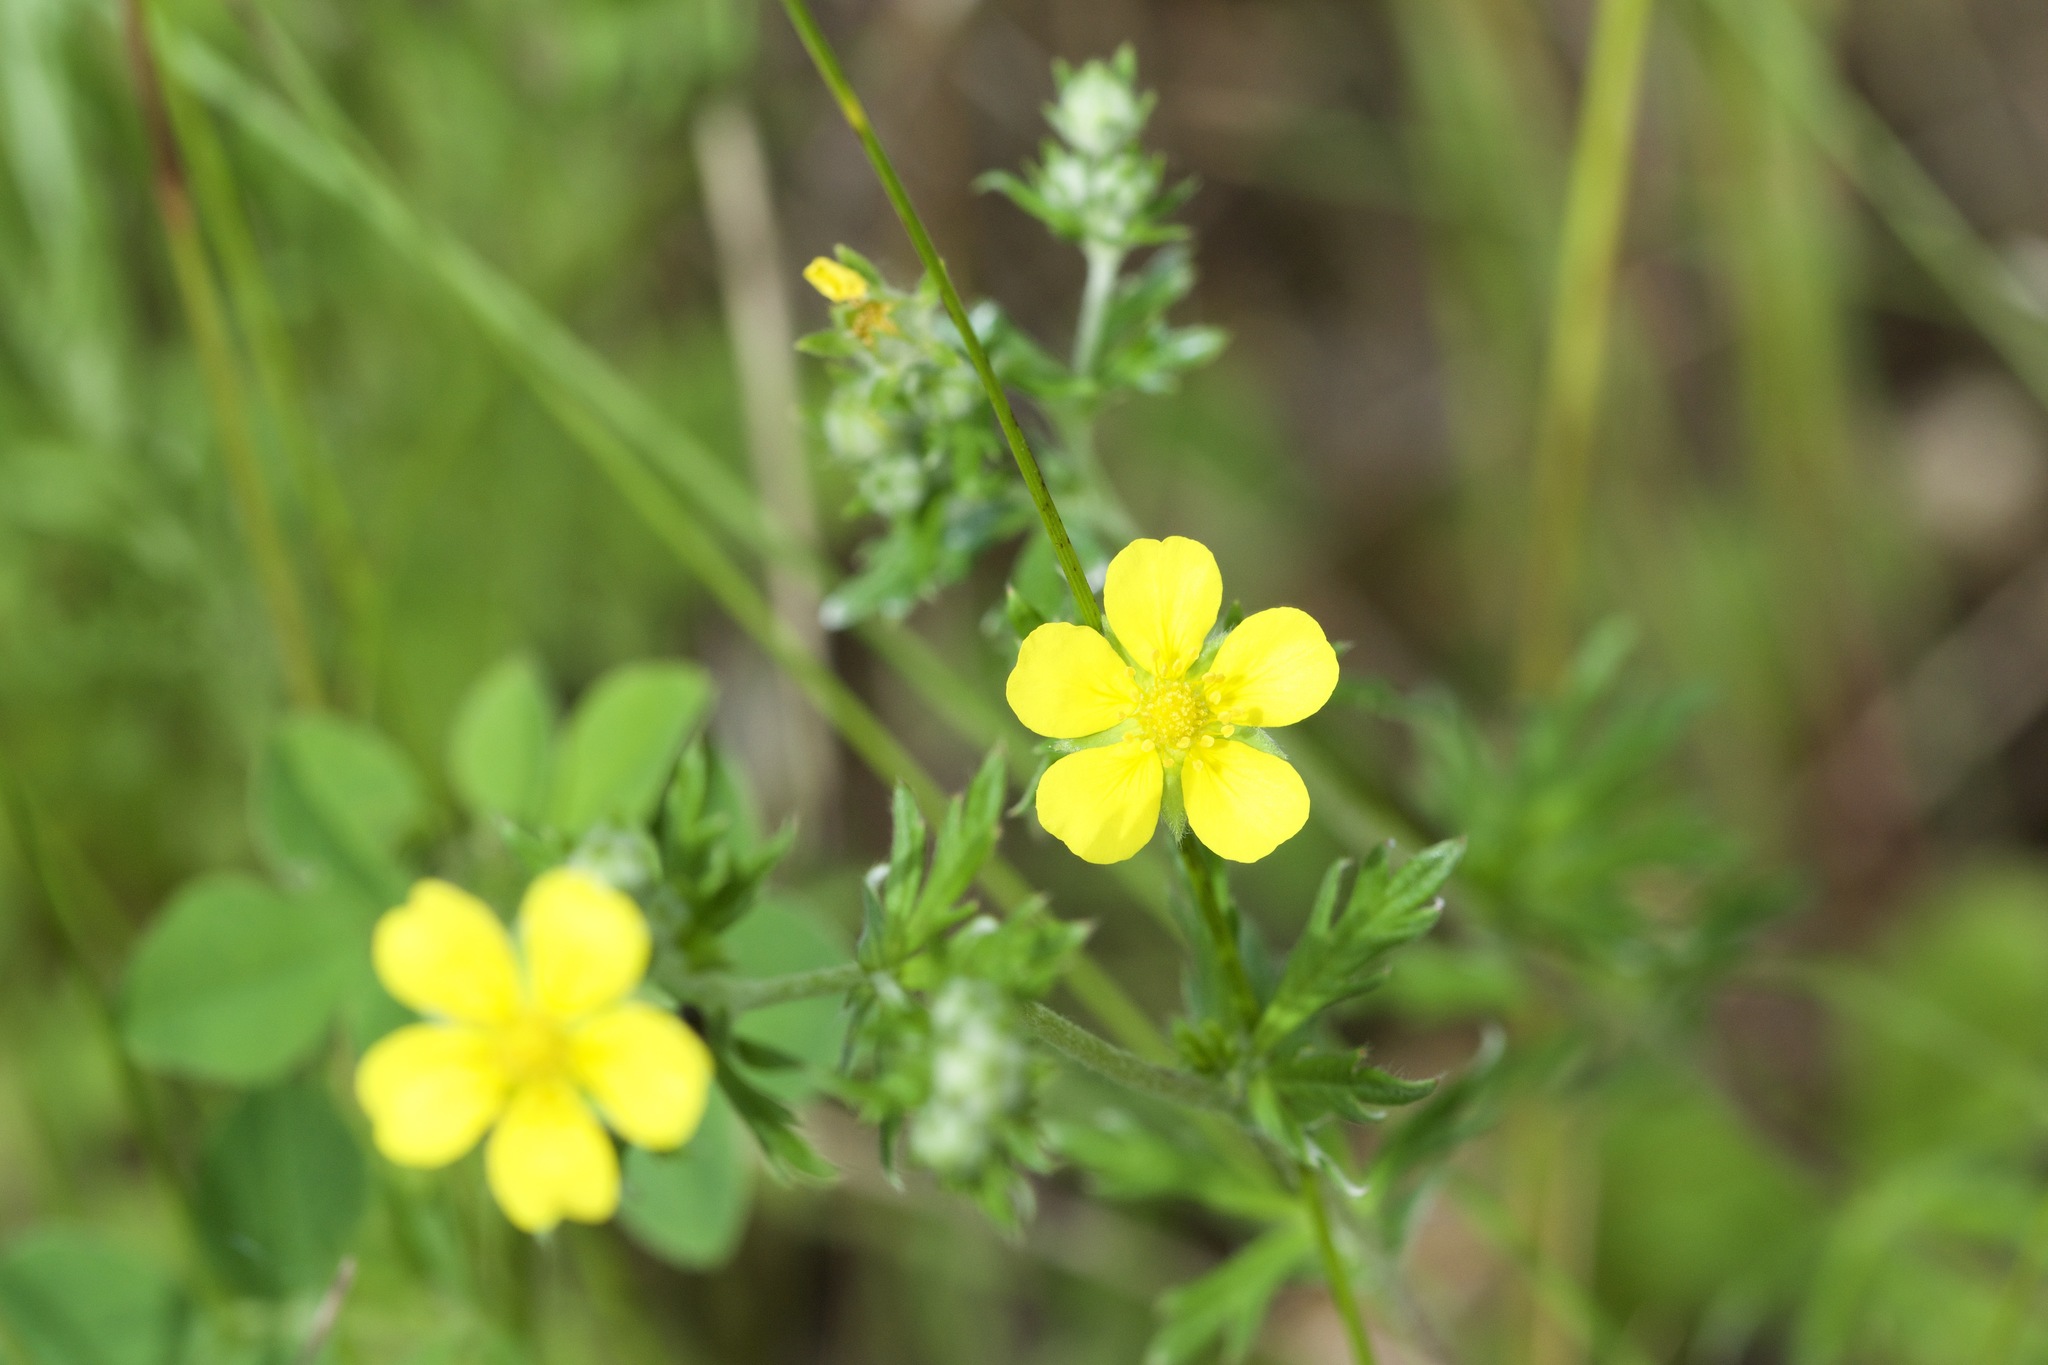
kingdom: Plantae
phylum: Tracheophyta
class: Magnoliopsida
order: Rosales
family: Rosaceae
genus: Potentilla
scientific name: Potentilla argentea
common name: Hoary cinquefoil
